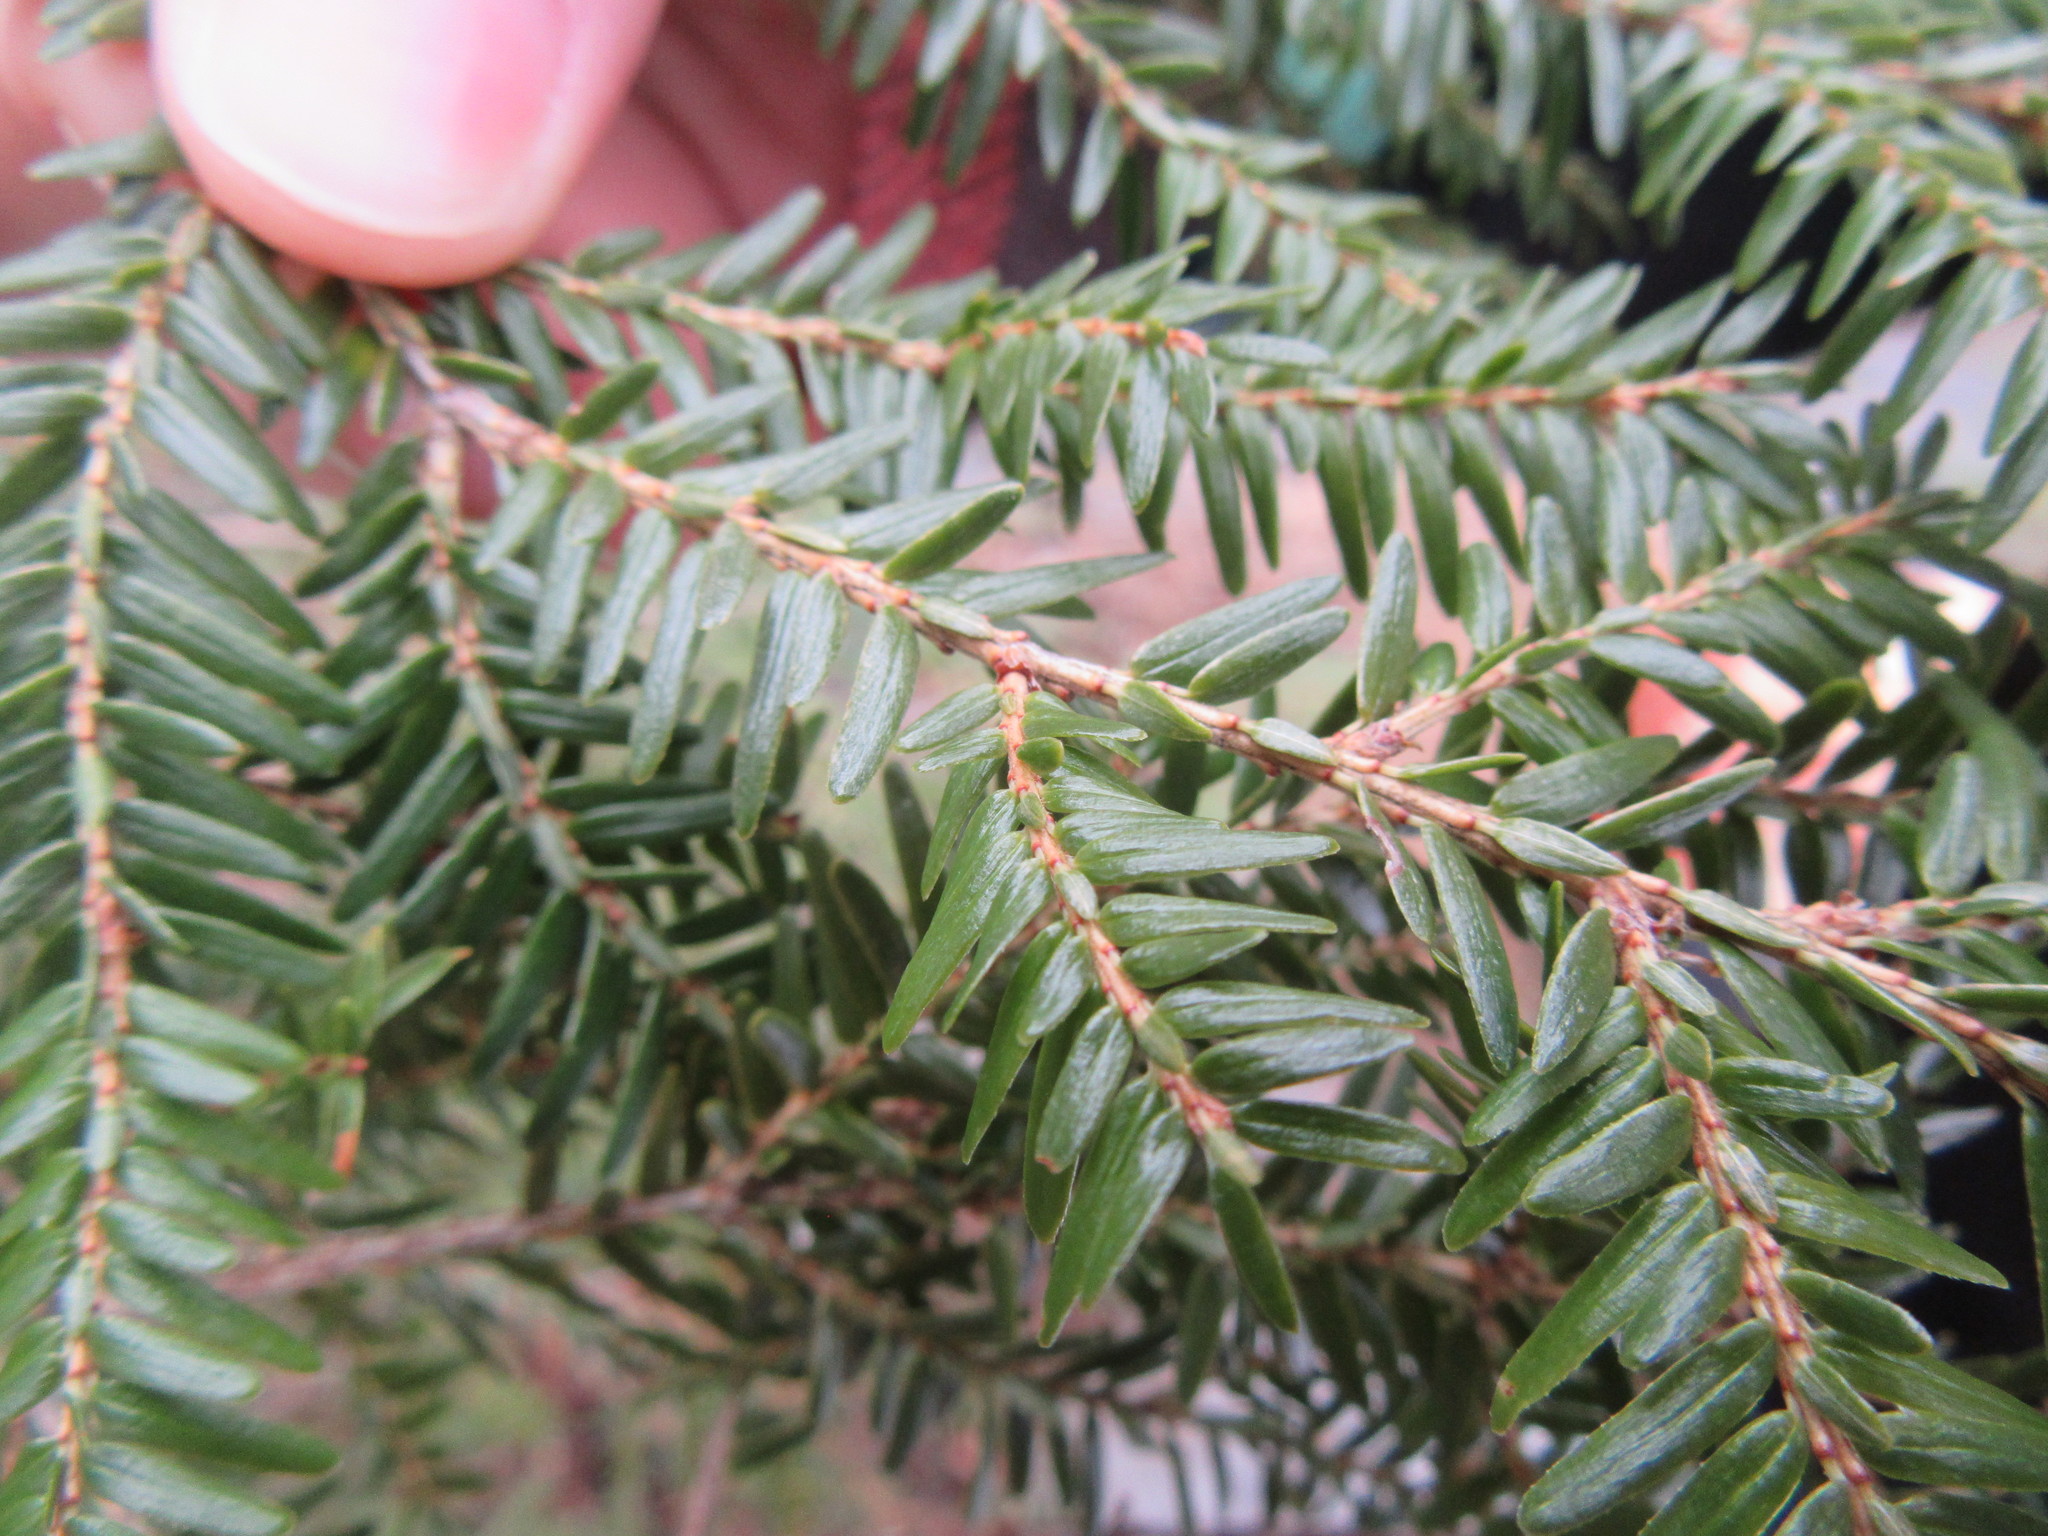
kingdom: Plantae
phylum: Tracheophyta
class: Pinopsida
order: Pinales
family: Pinaceae
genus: Tsuga
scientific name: Tsuga canadensis
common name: Eastern hemlock
